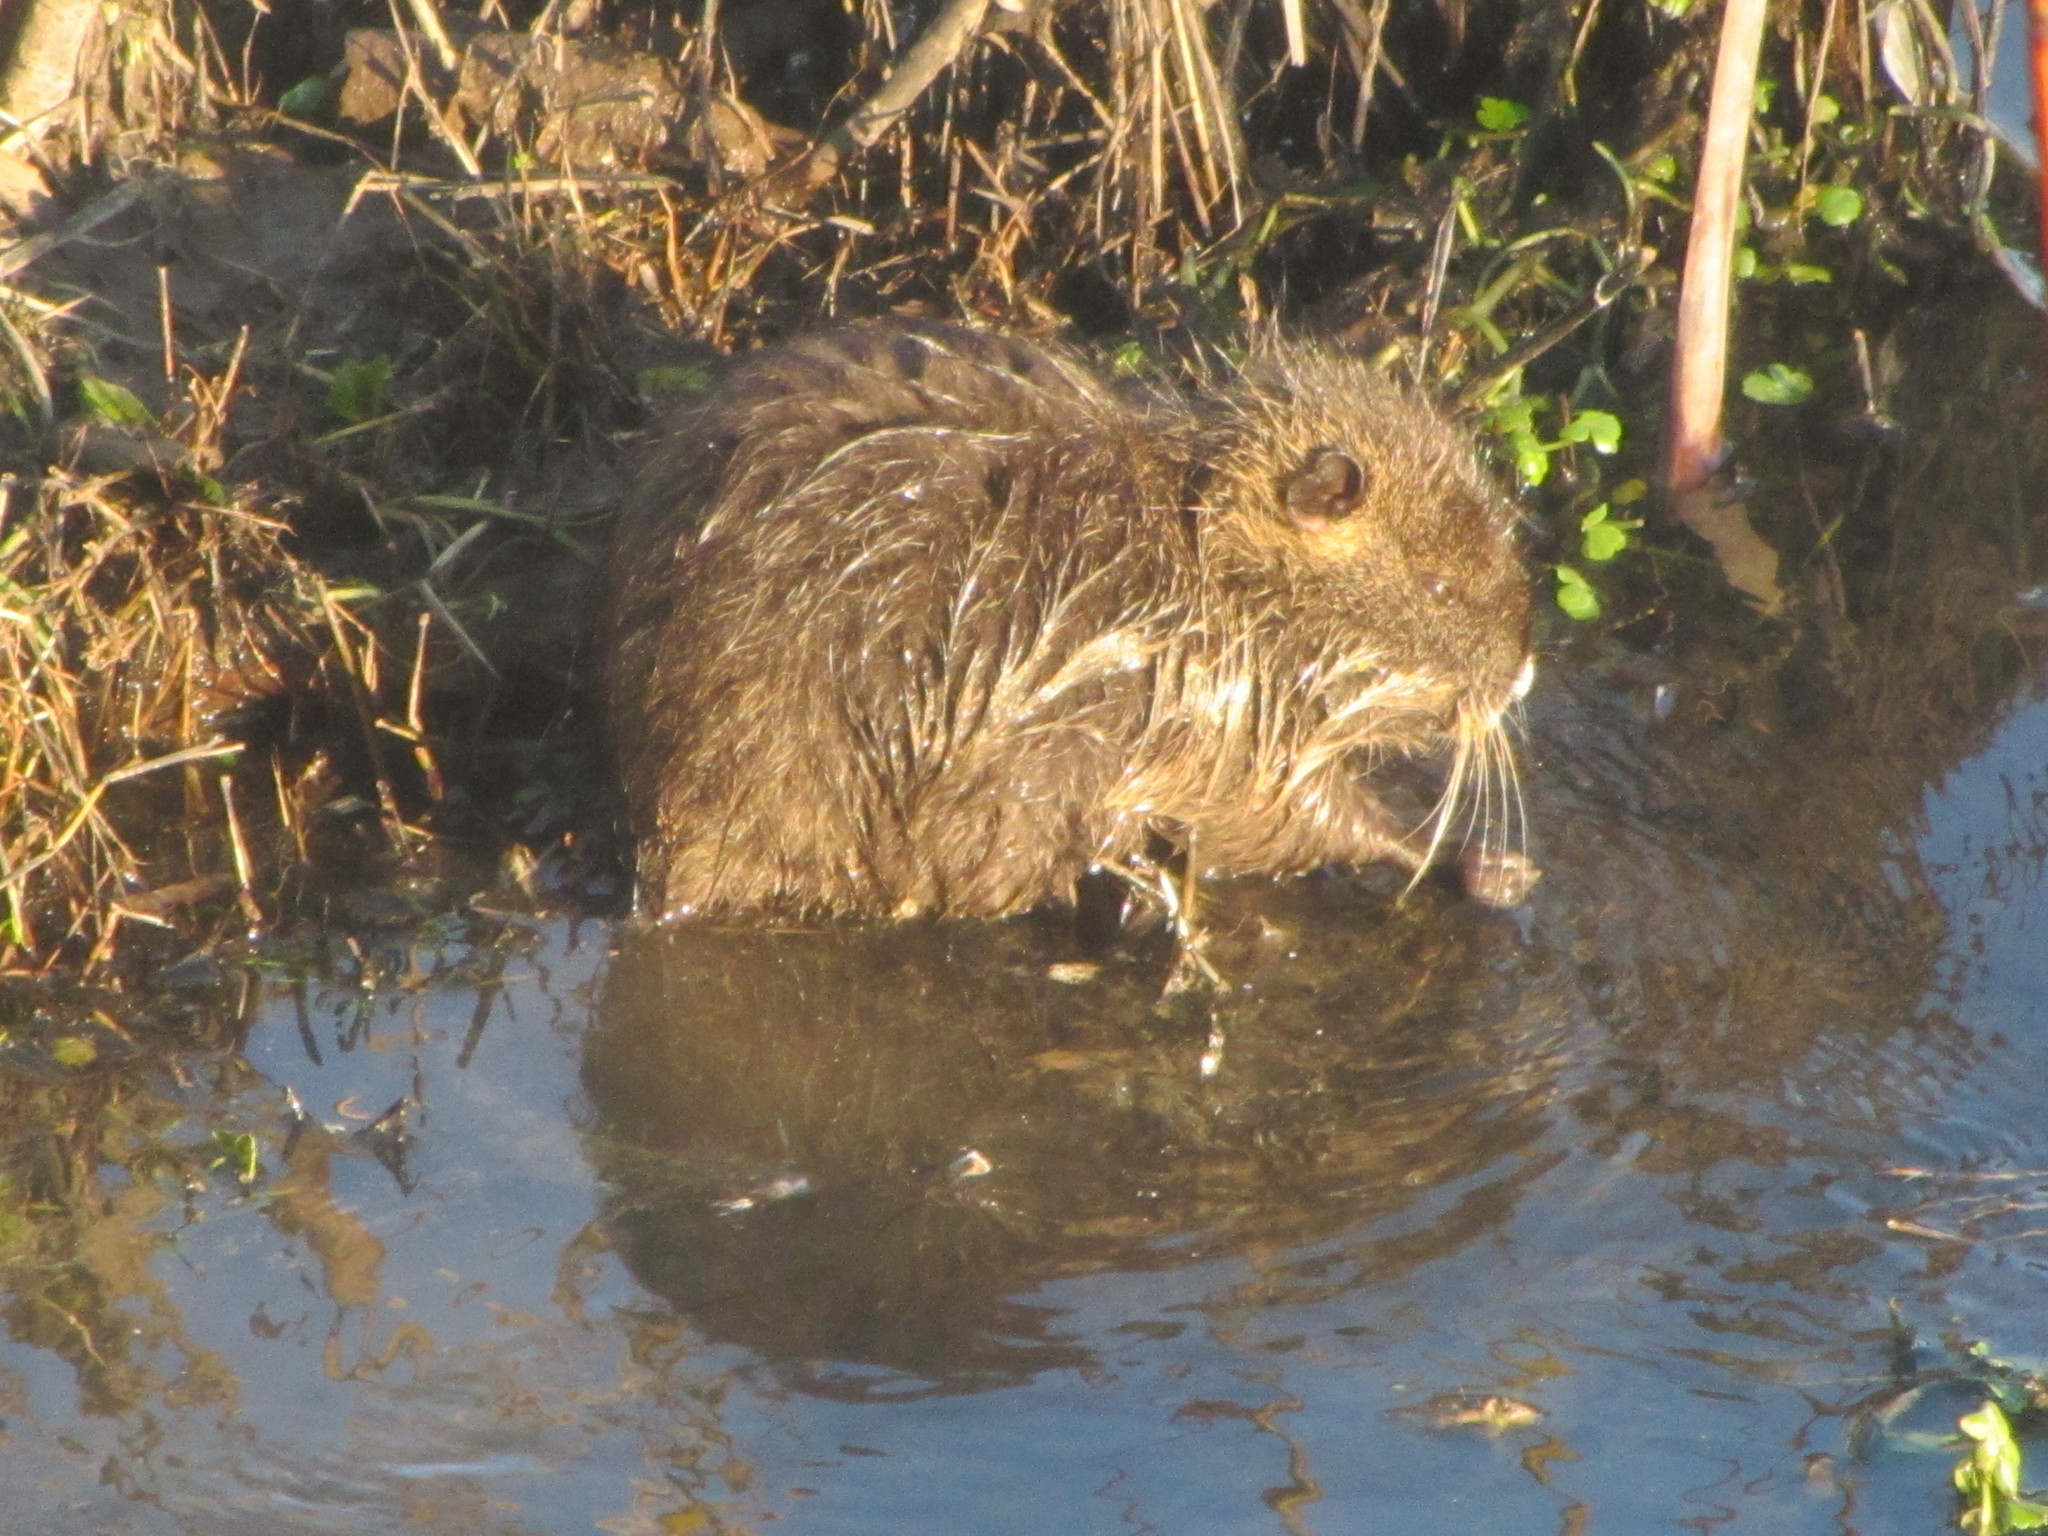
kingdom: Animalia
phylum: Chordata
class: Mammalia
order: Rodentia
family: Myocastoridae
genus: Myocastor
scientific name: Myocastor coypus
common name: Coypu
